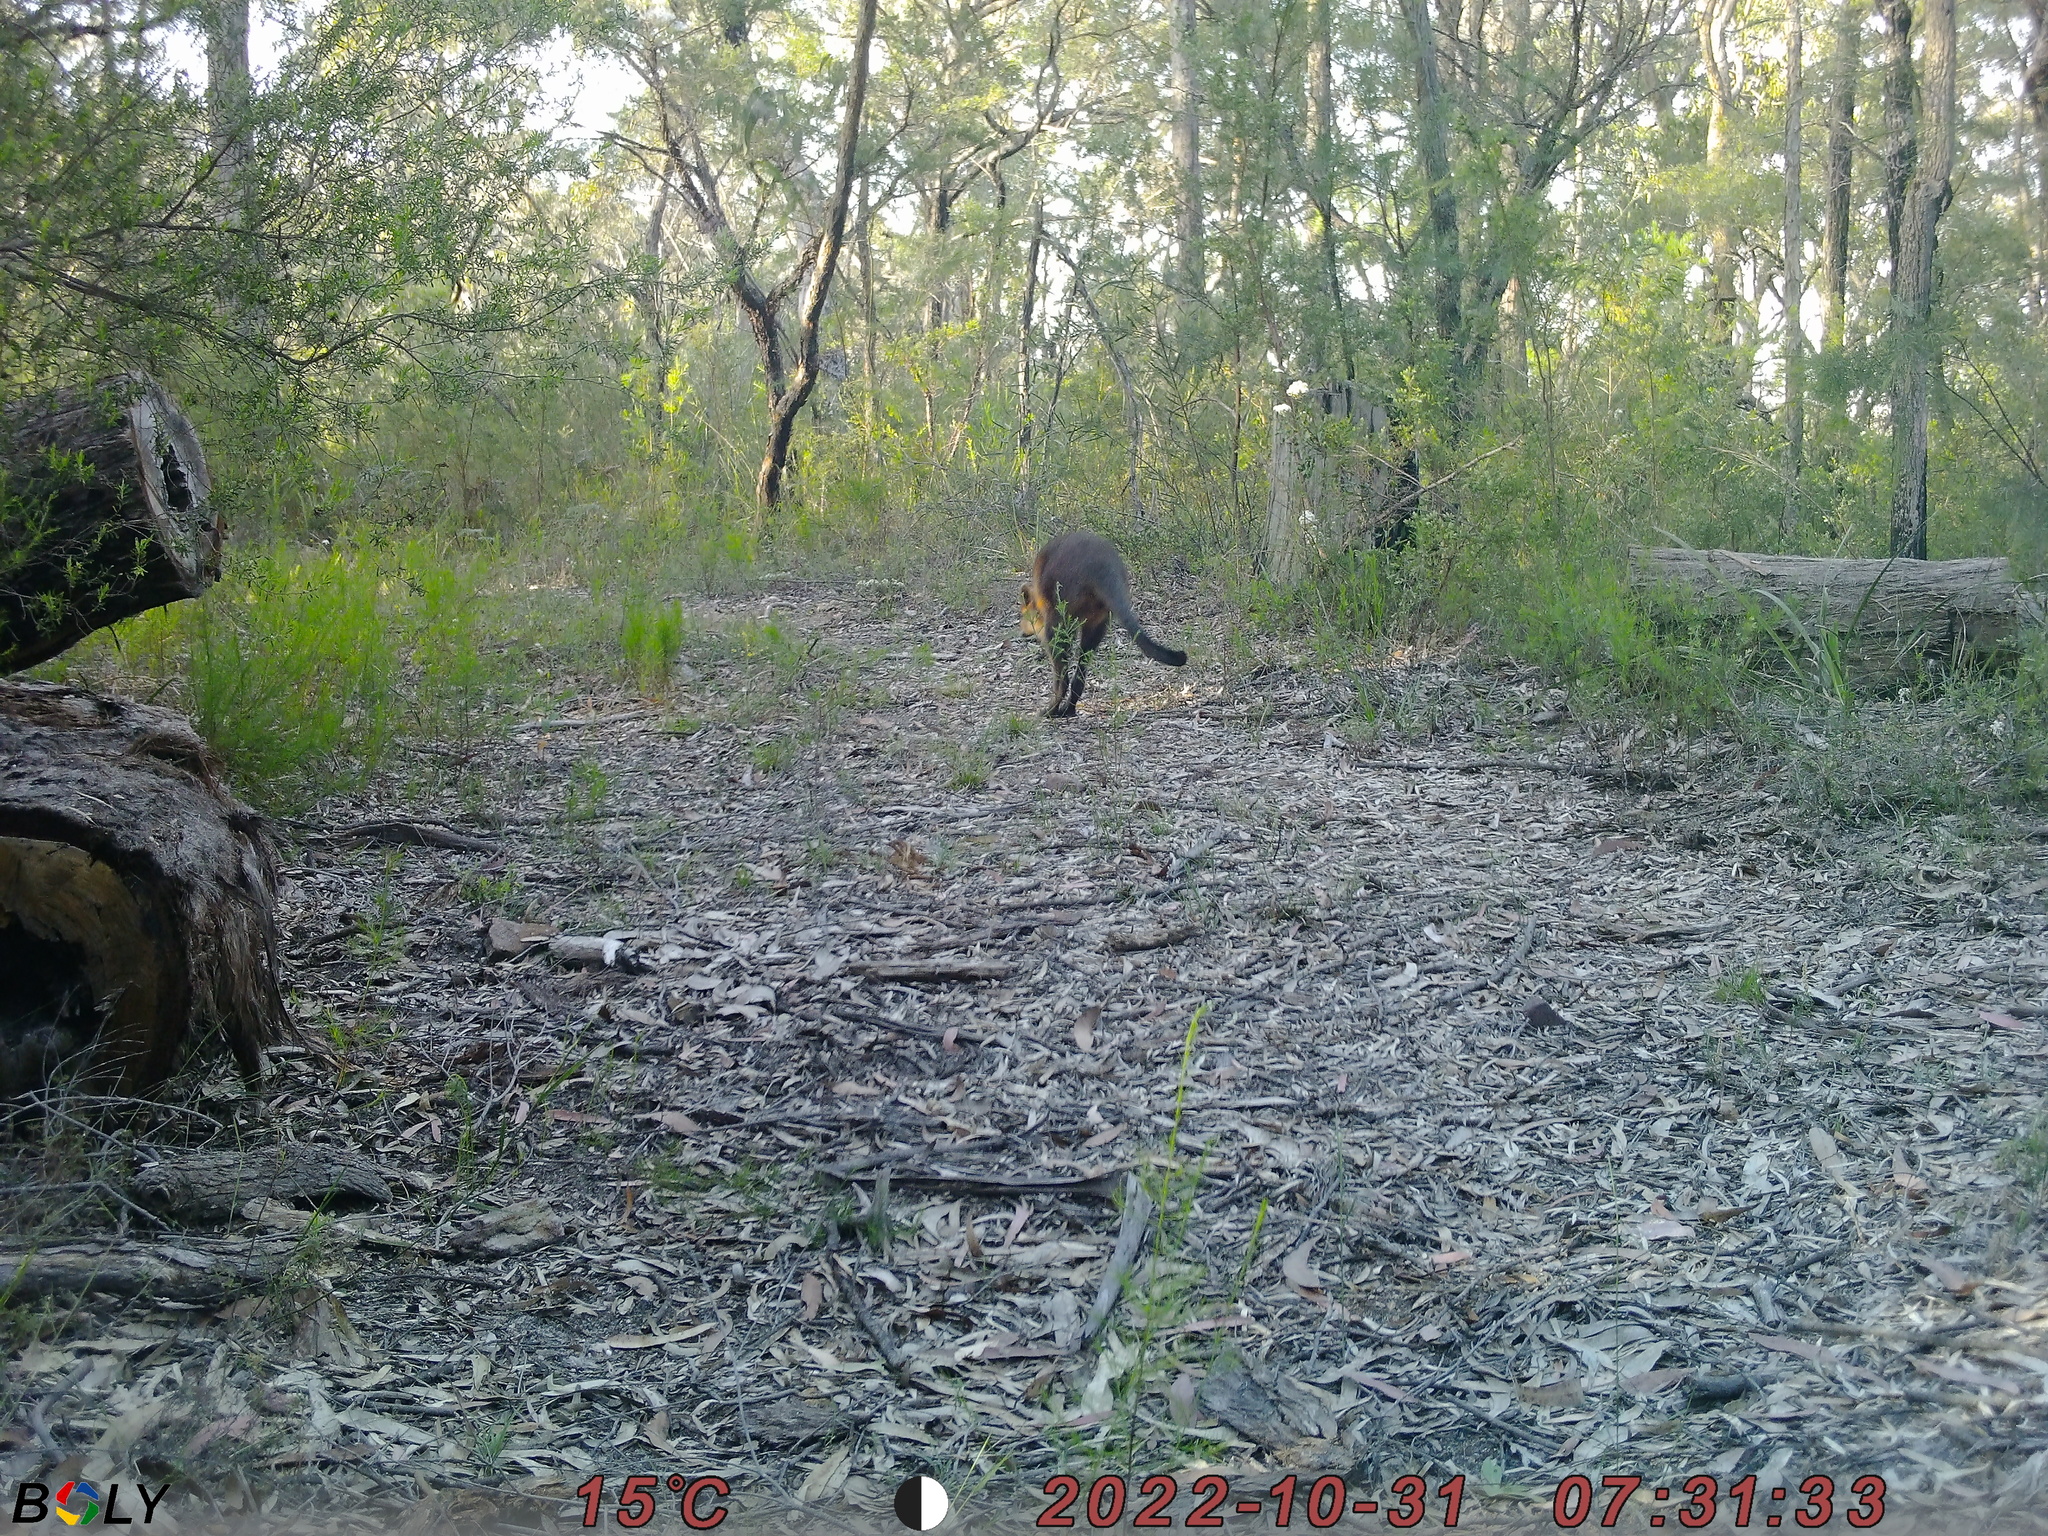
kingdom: Animalia
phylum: Chordata
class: Mammalia
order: Diprotodontia
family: Macropodidae
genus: Wallabia
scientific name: Wallabia bicolor
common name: Swamp wallaby
